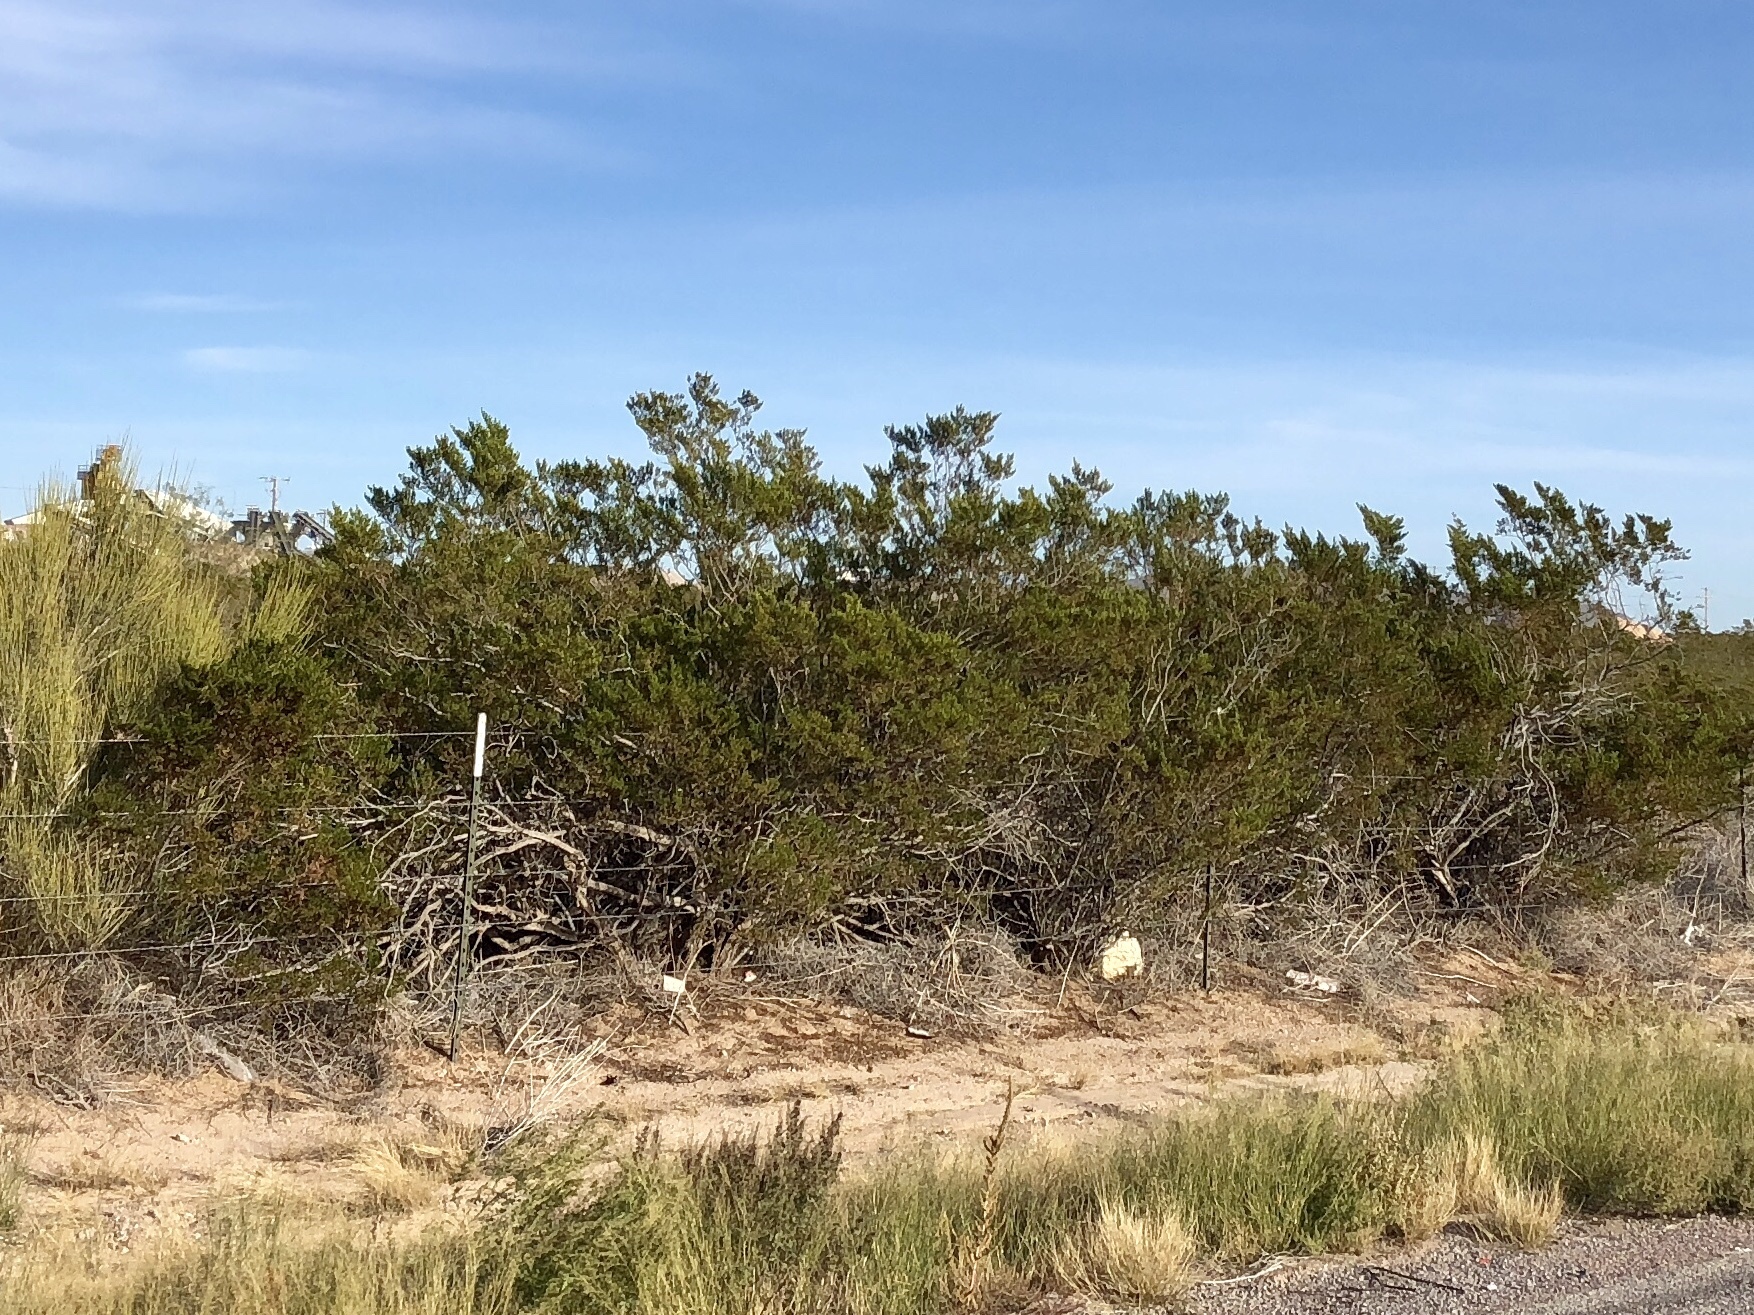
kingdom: Plantae
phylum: Tracheophyta
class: Magnoliopsida
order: Zygophyllales
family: Zygophyllaceae
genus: Larrea
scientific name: Larrea tridentata
